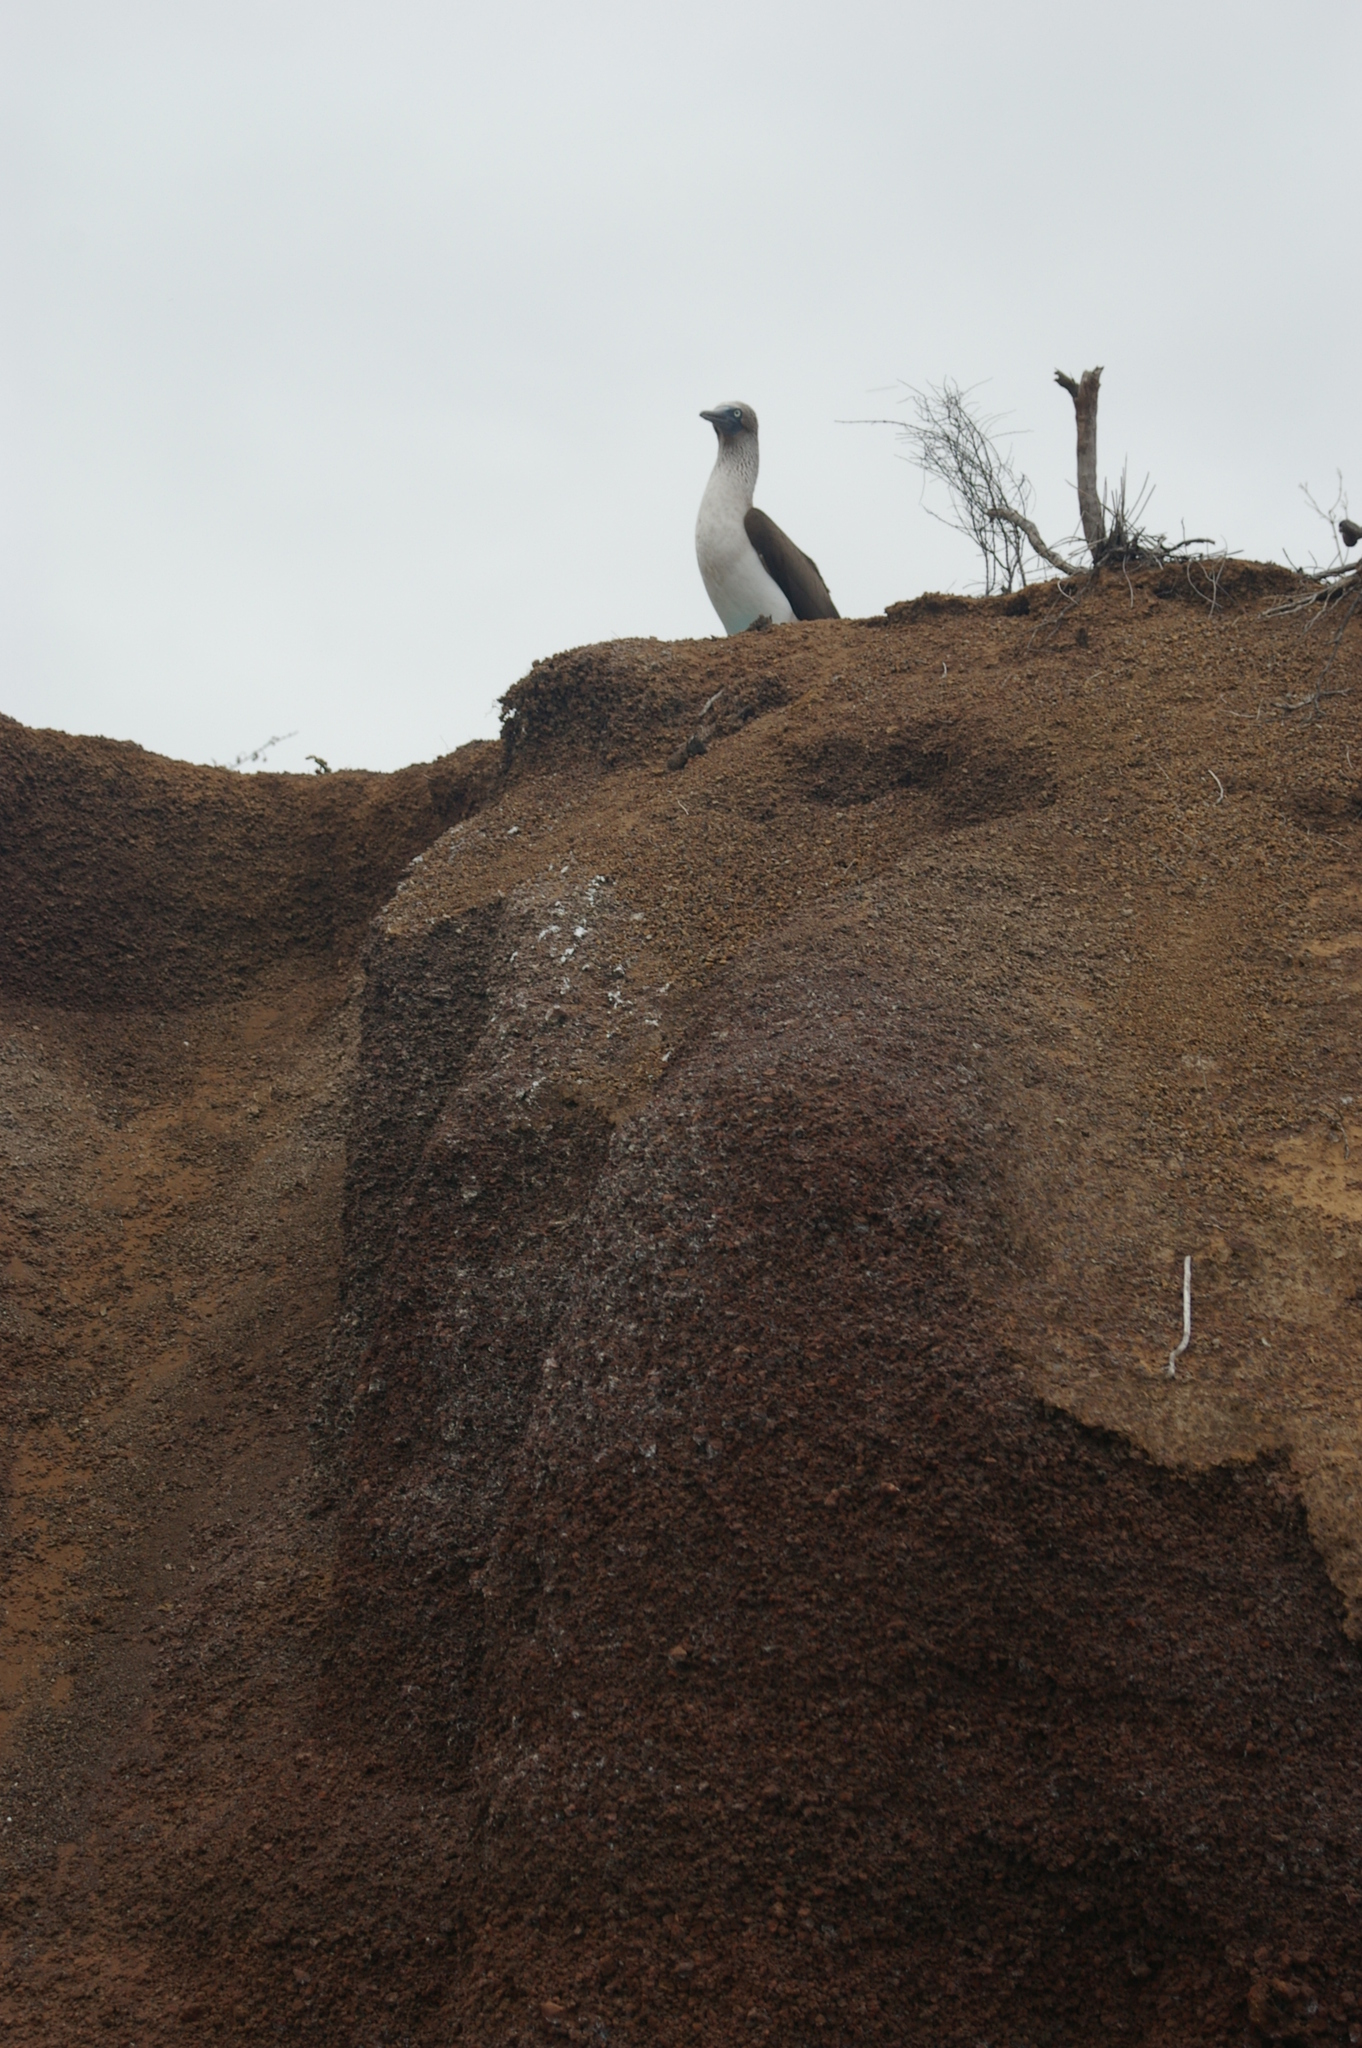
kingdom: Animalia
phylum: Chordata
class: Aves
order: Suliformes
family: Sulidae
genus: Sula
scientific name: Sula nebouxii
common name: Blue-footed booby
